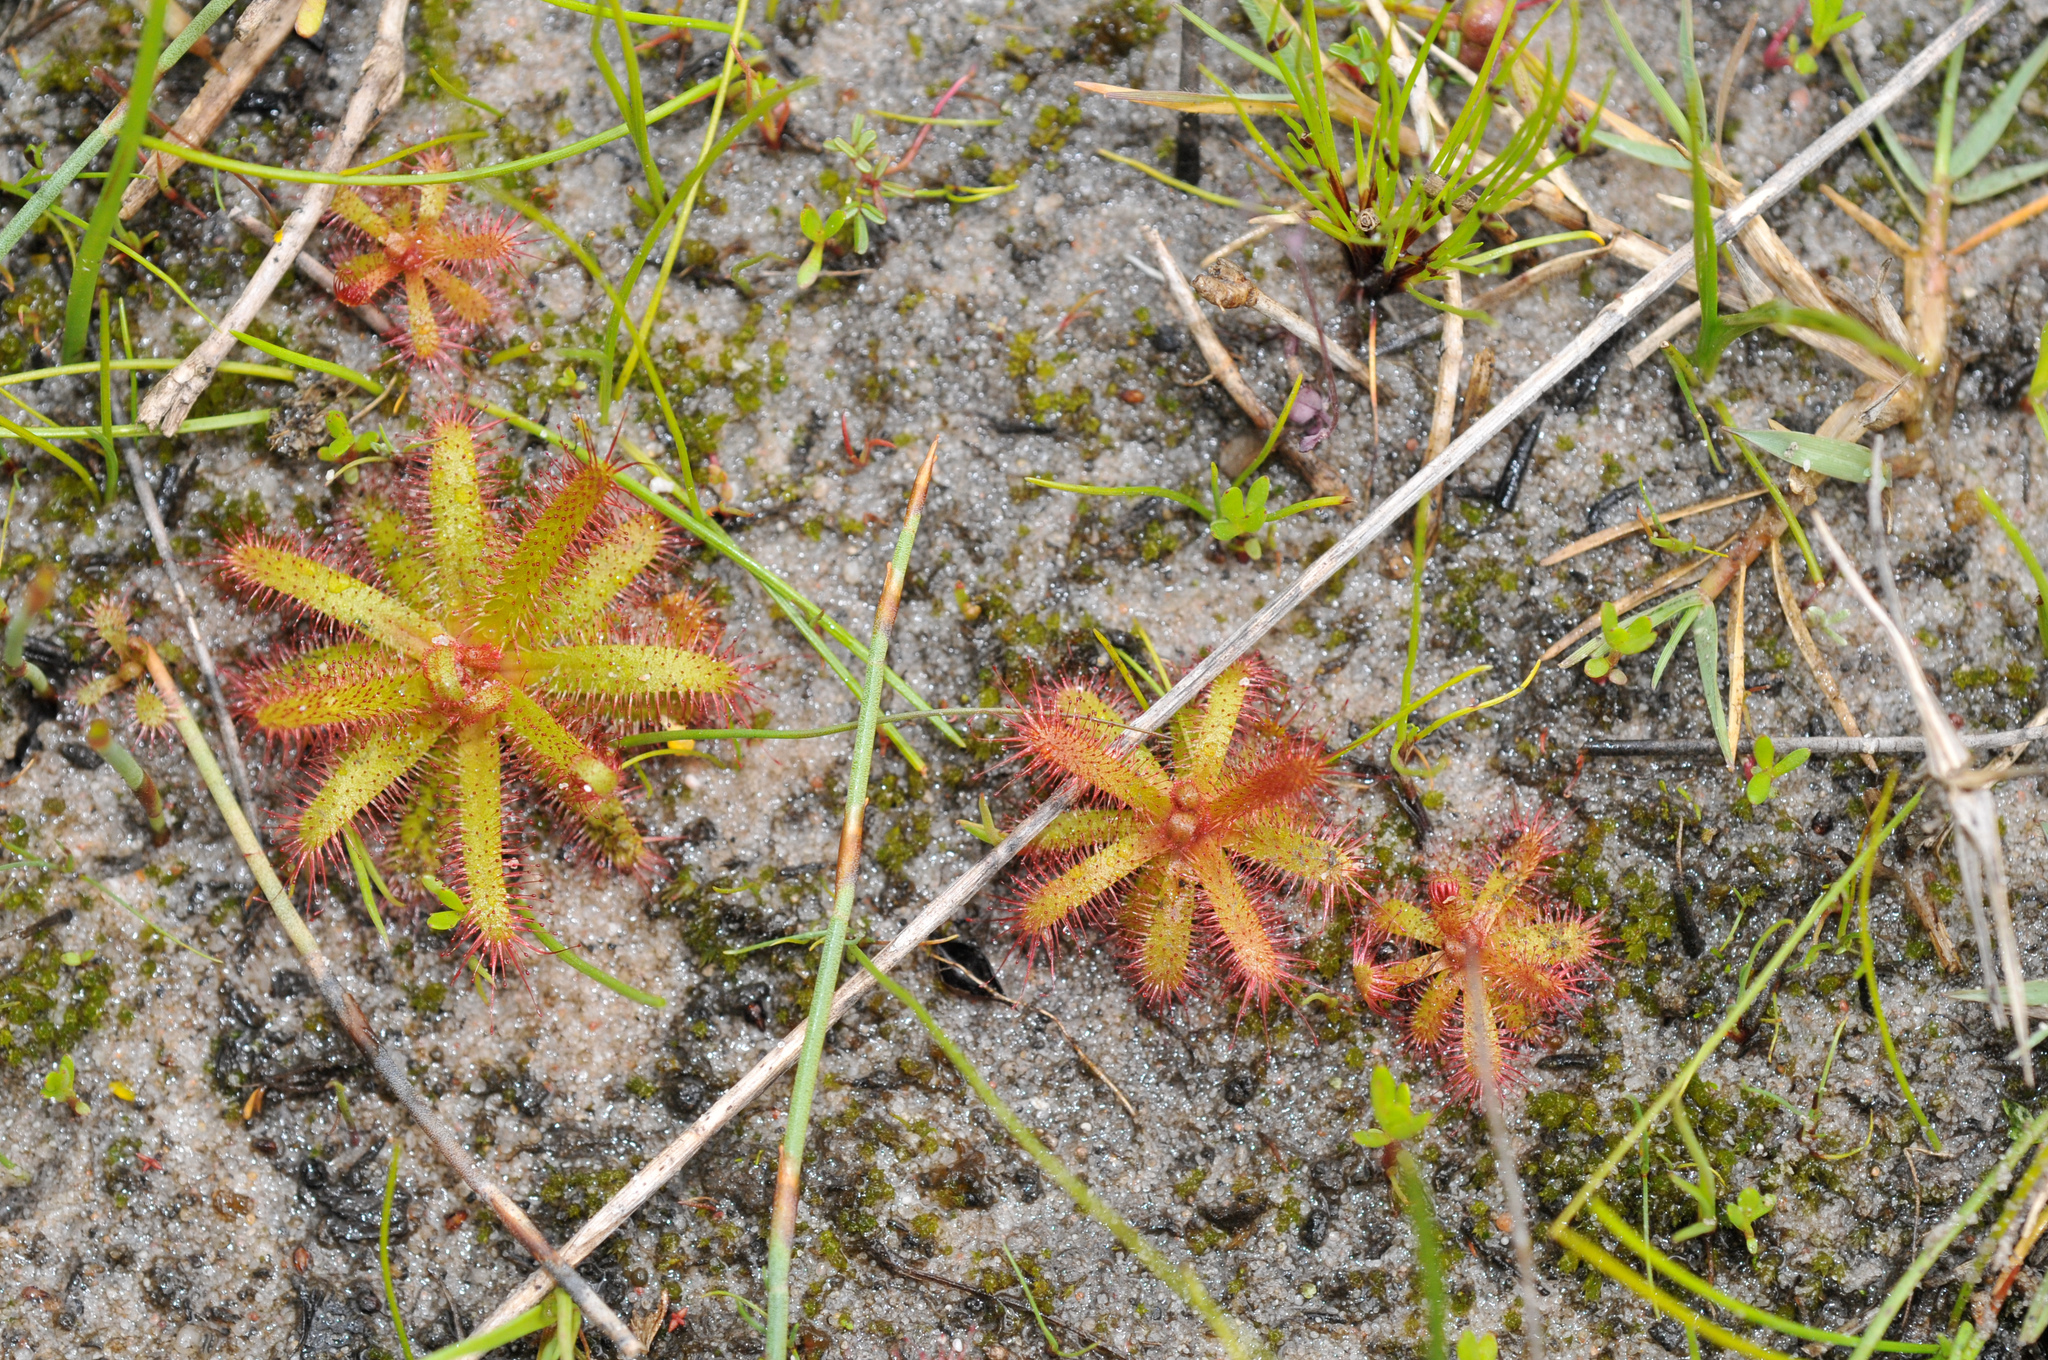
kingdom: Plantae
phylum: Tracheophyta
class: Magnoliopsida
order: Caryophyllales
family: Droseraceae
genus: Drosera
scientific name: Drosera cistiflora
